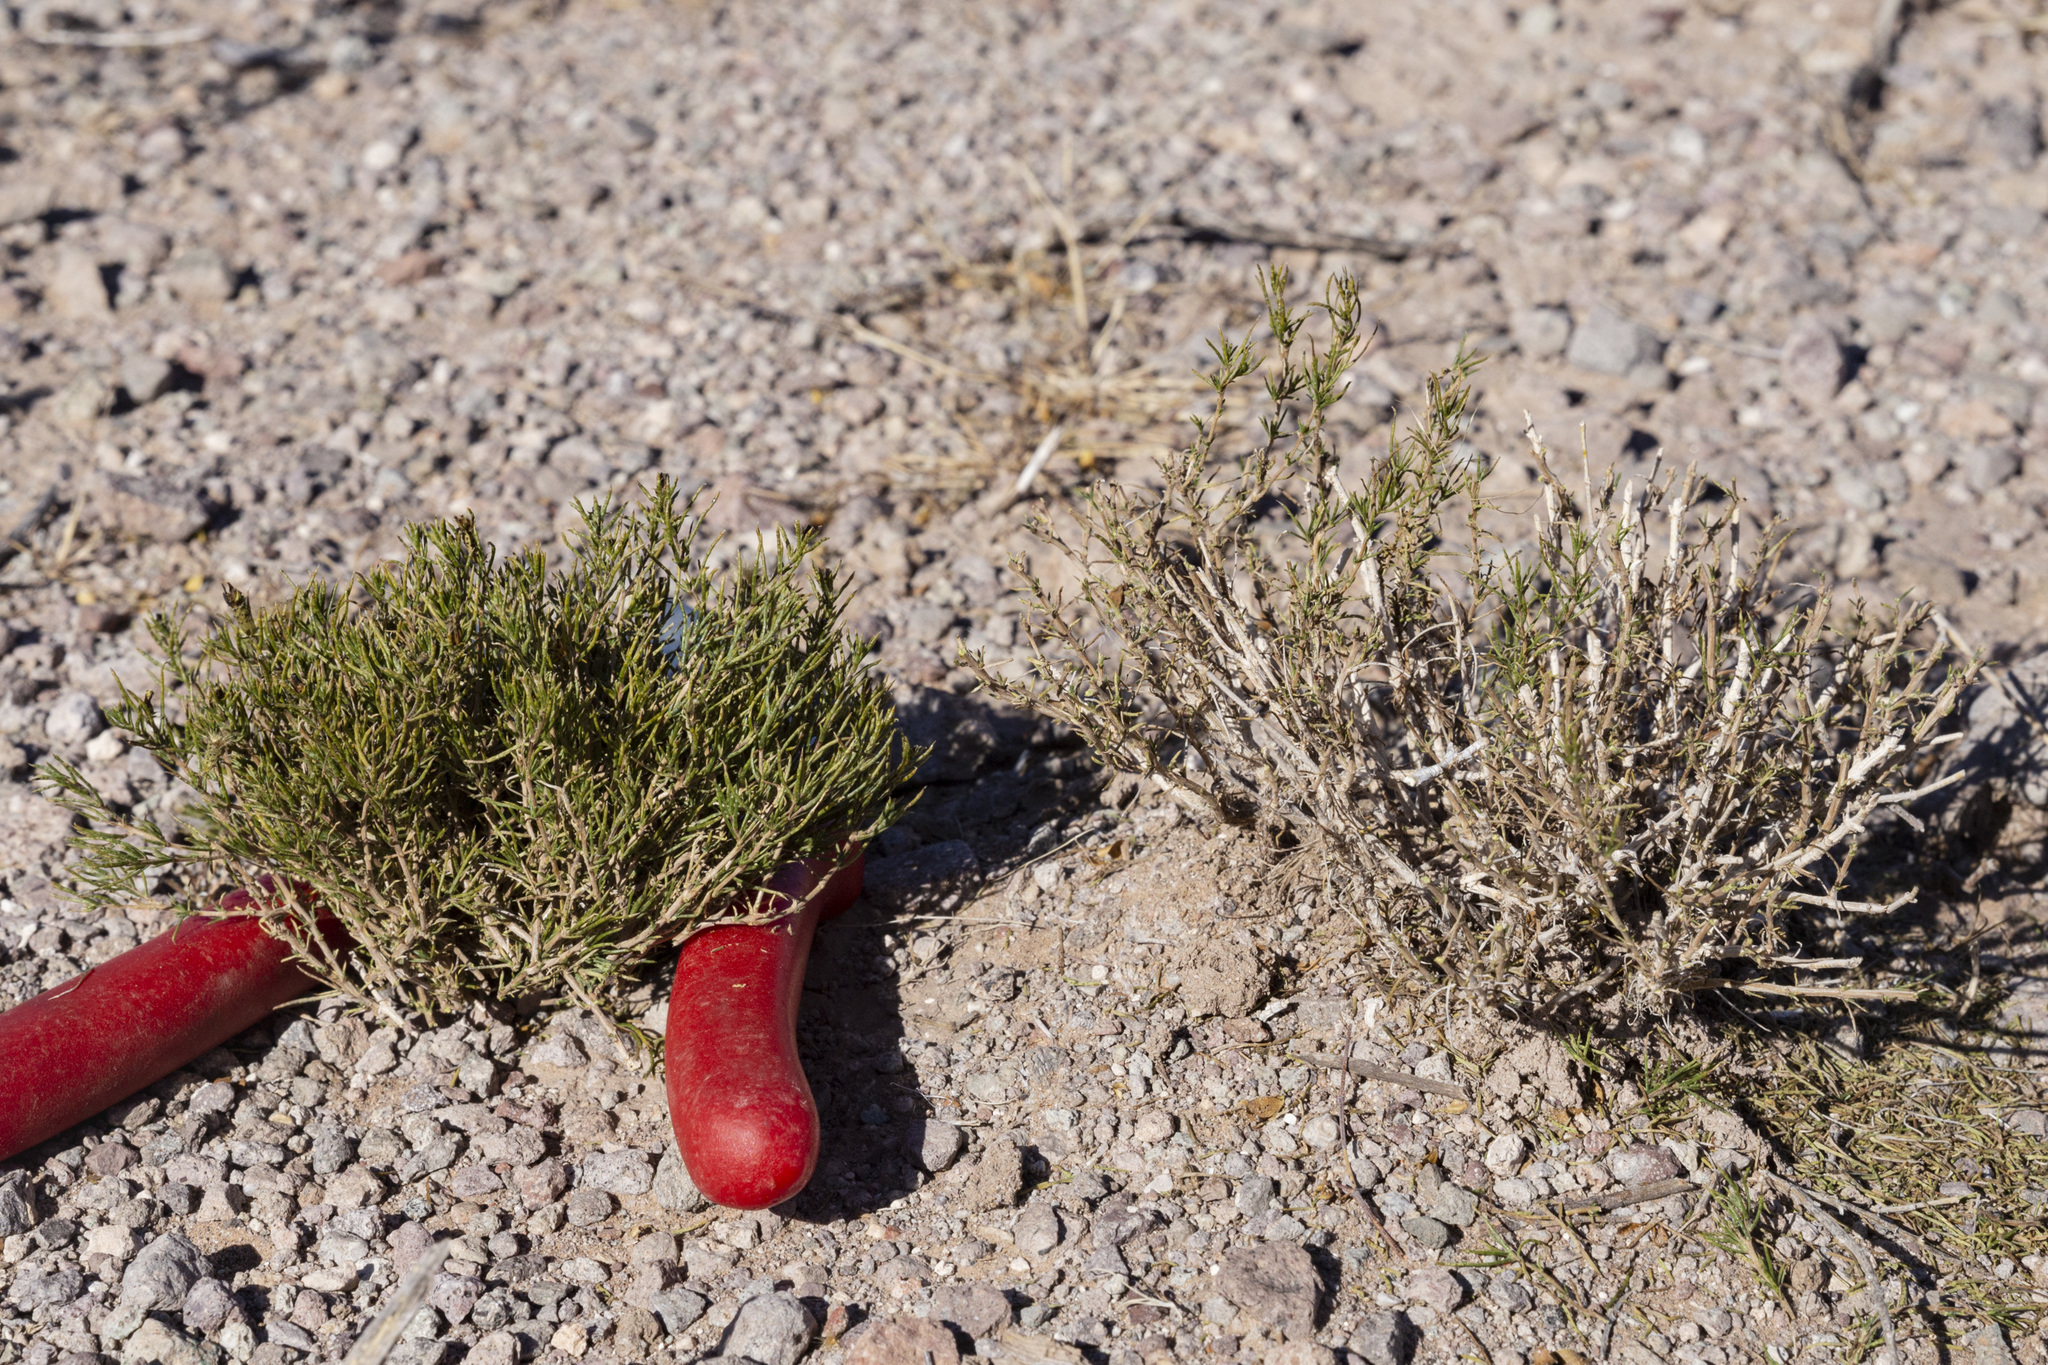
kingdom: Plantae
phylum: Tracheophyta
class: Magnoliopsida
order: Asterales
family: Asteraceae
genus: Thymophylla
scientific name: Thymophylla acerosa
